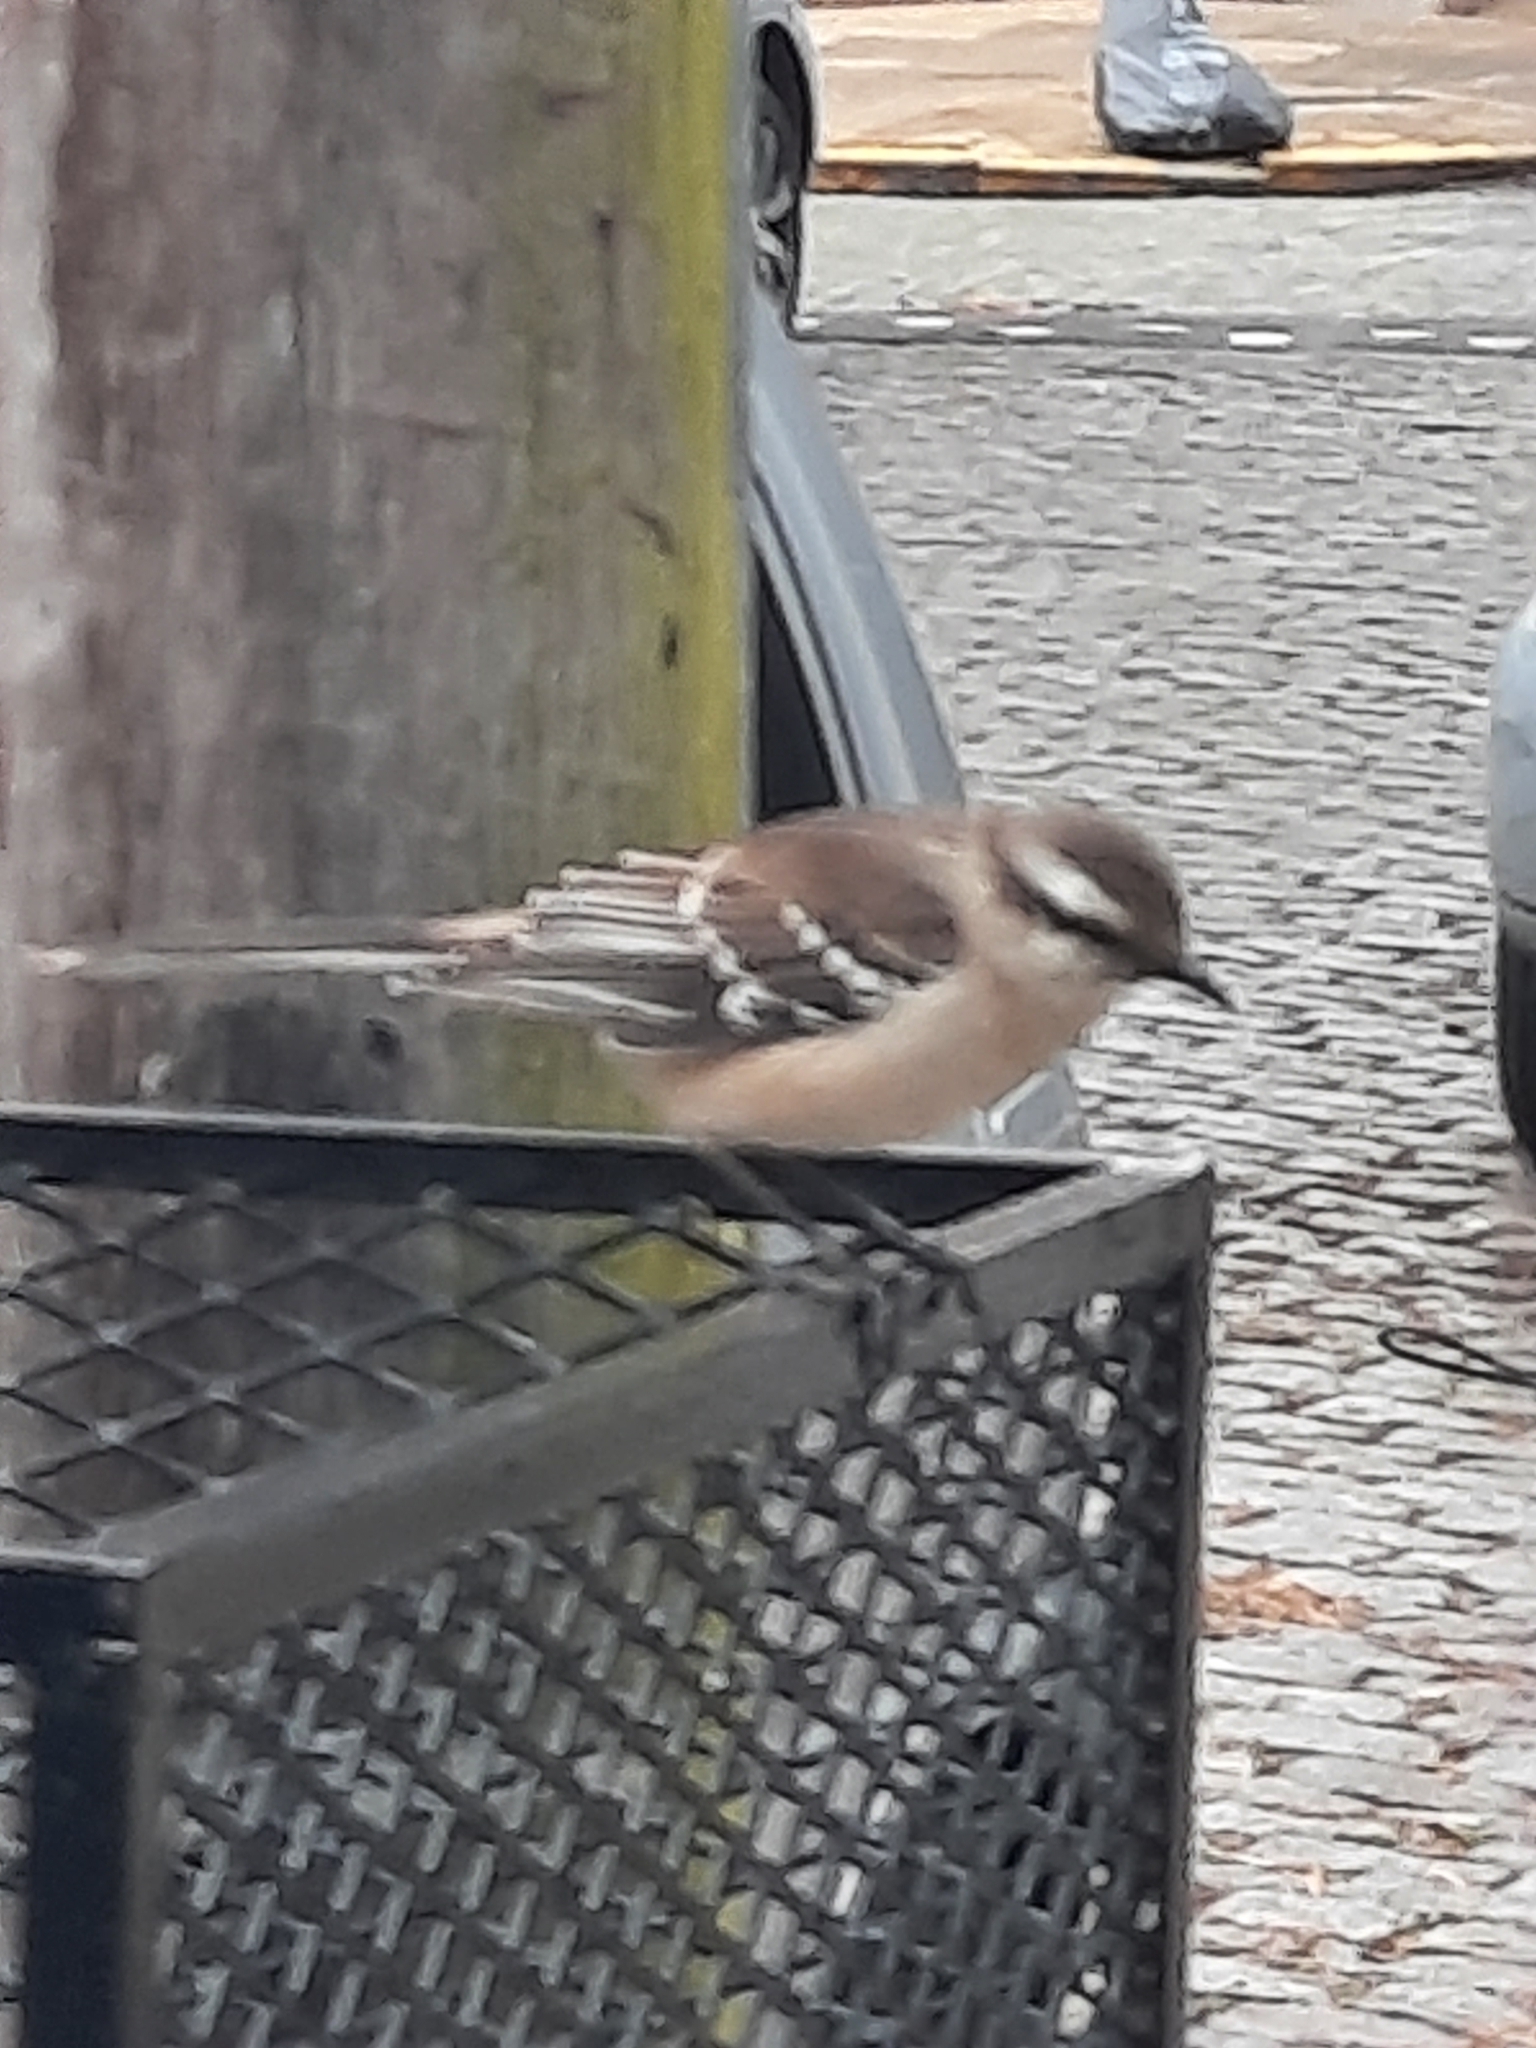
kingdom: Animalia
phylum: Chordata
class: Aves
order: Passeriformes
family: Mimidae
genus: Mimus
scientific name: Mimus saturninus
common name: Chalk-browed mockingbird
